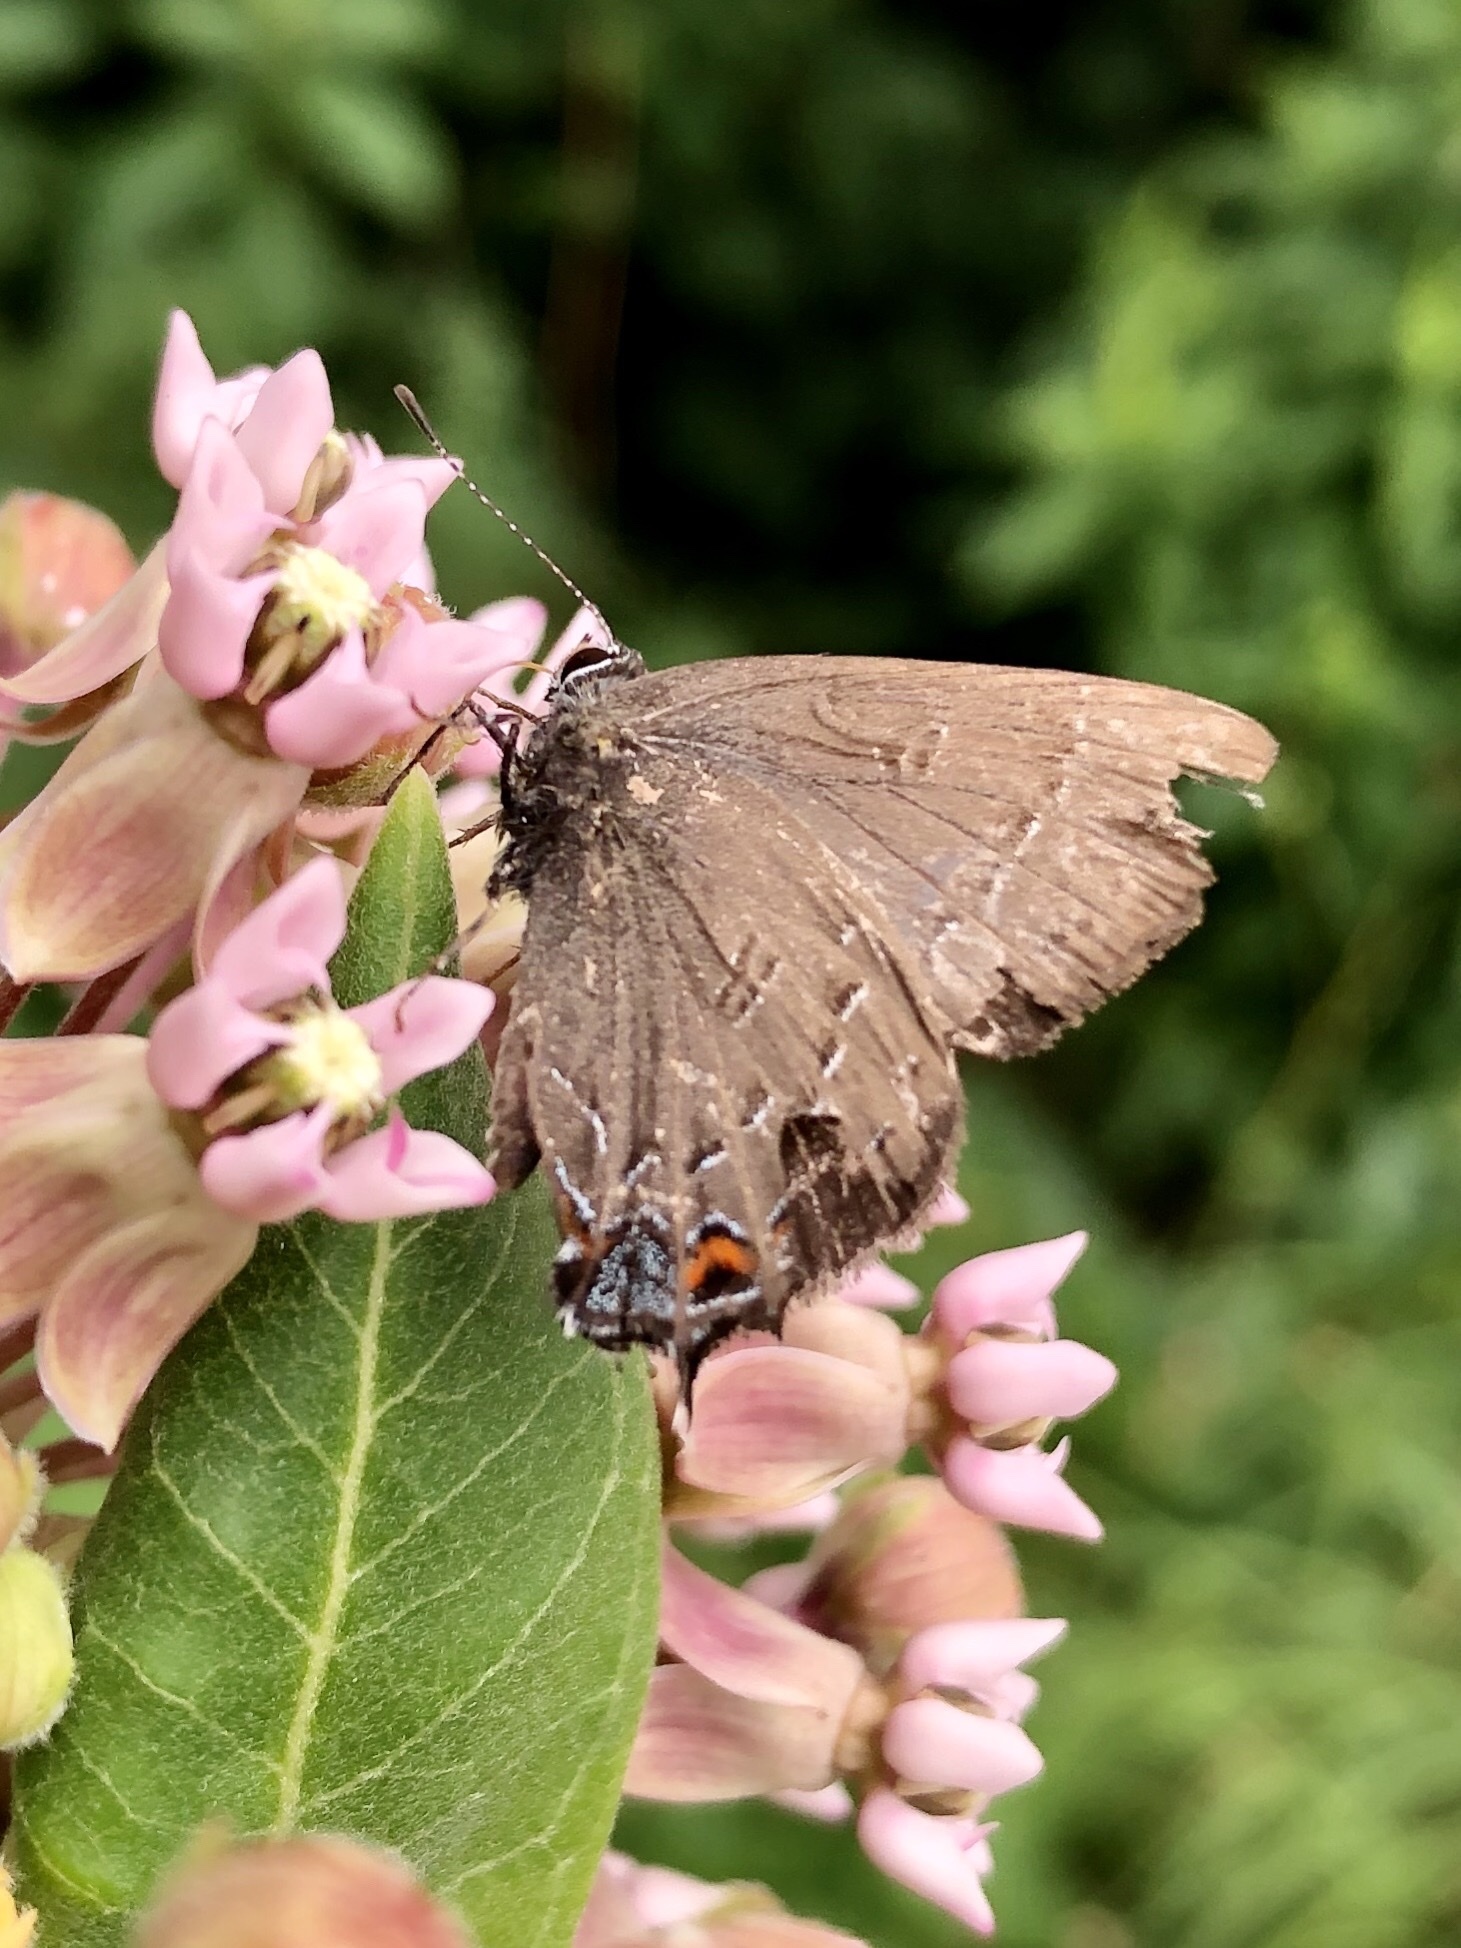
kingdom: Animalia
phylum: Arthropoda
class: Insecta
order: Lepidoptera
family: Lycaenidae
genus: Satyrium
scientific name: Satyrium calanus
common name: Banded hairstreak
